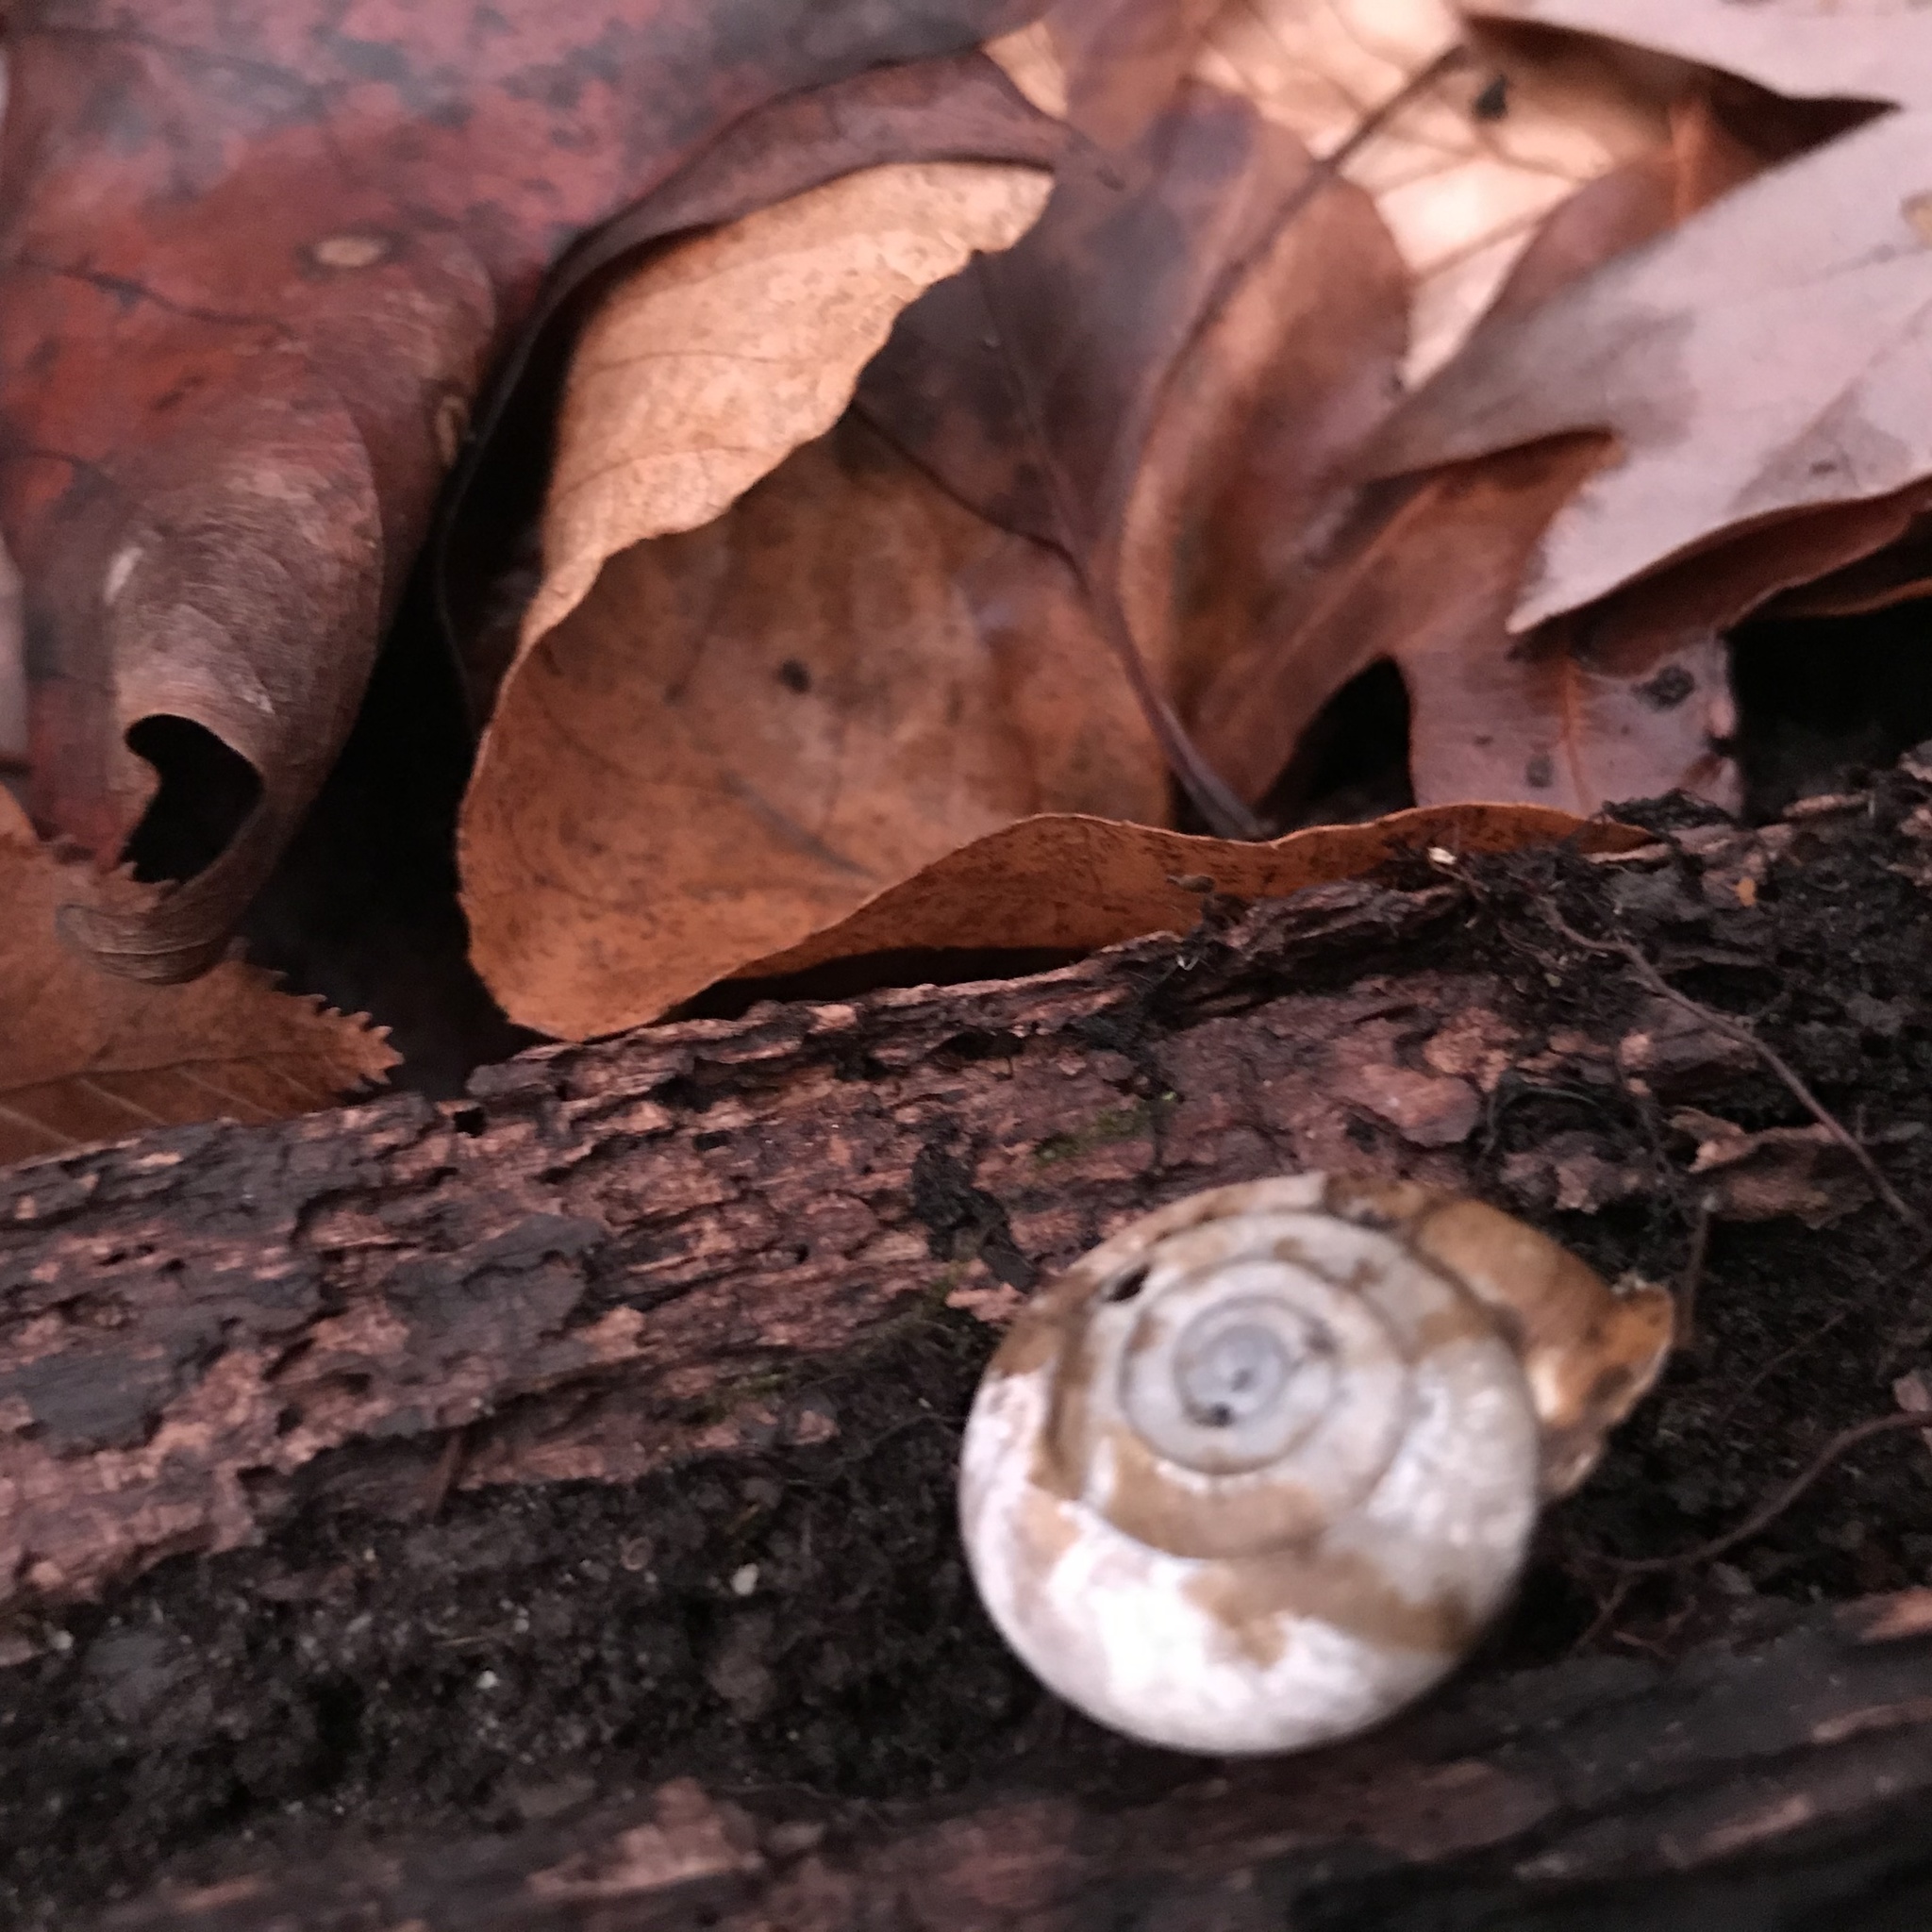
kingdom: Animalia
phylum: Mollusca
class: Gastropoda
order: Stylommatophora
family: Polygyridae
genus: Mesodon
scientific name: Mesodon thyroidus
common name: White-lip globe
